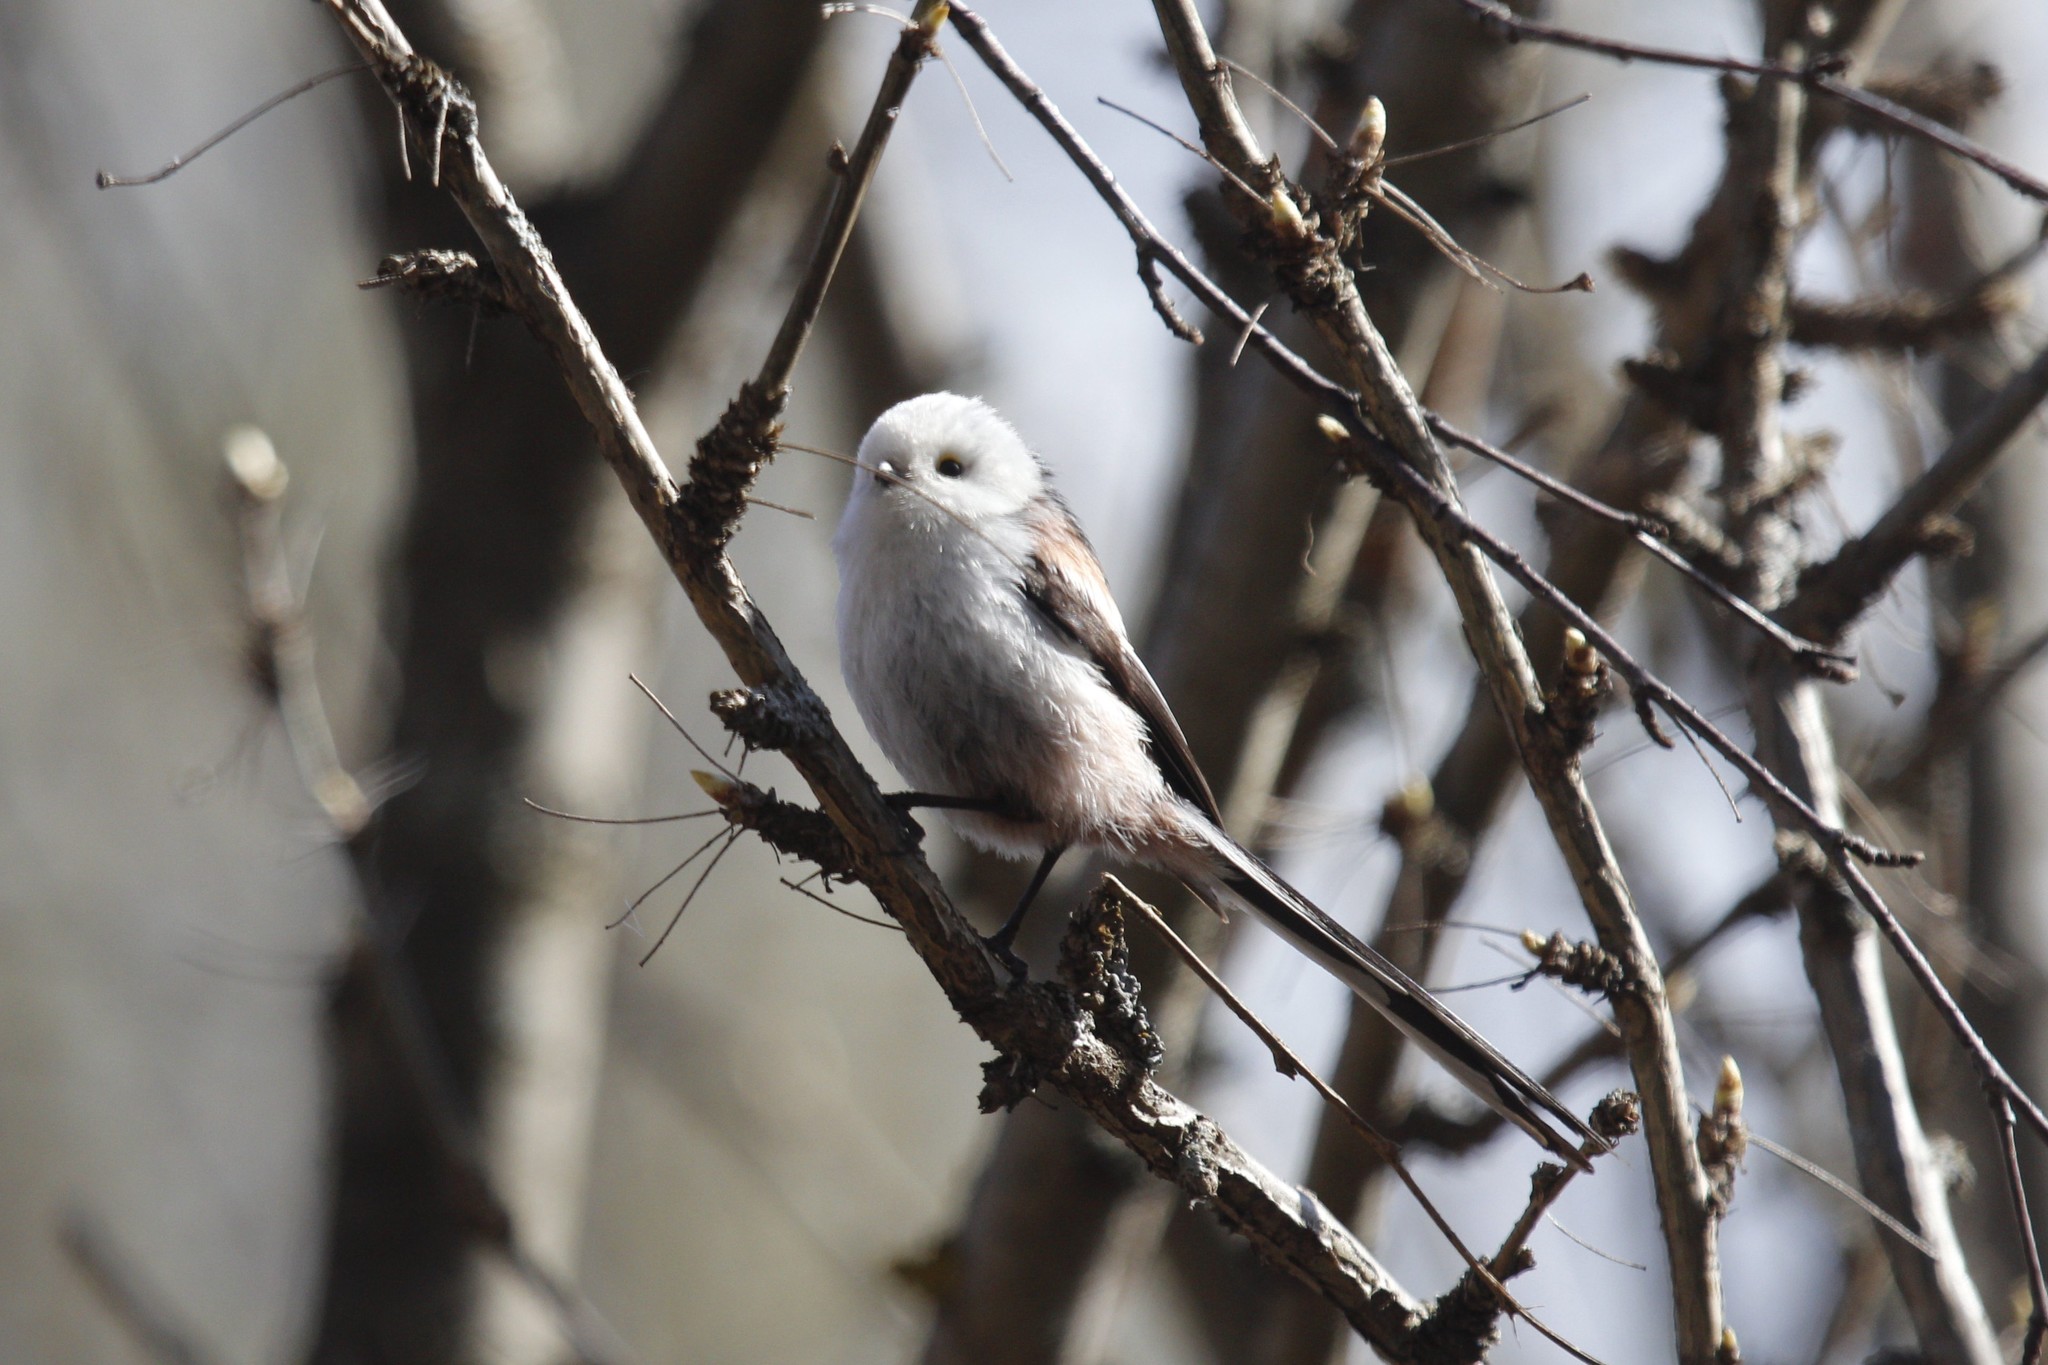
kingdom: Animalia
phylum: Chordata
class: Aves
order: Passeriformes
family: Aegithalidae
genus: Aegithalos
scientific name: Aegithalos caudatus
